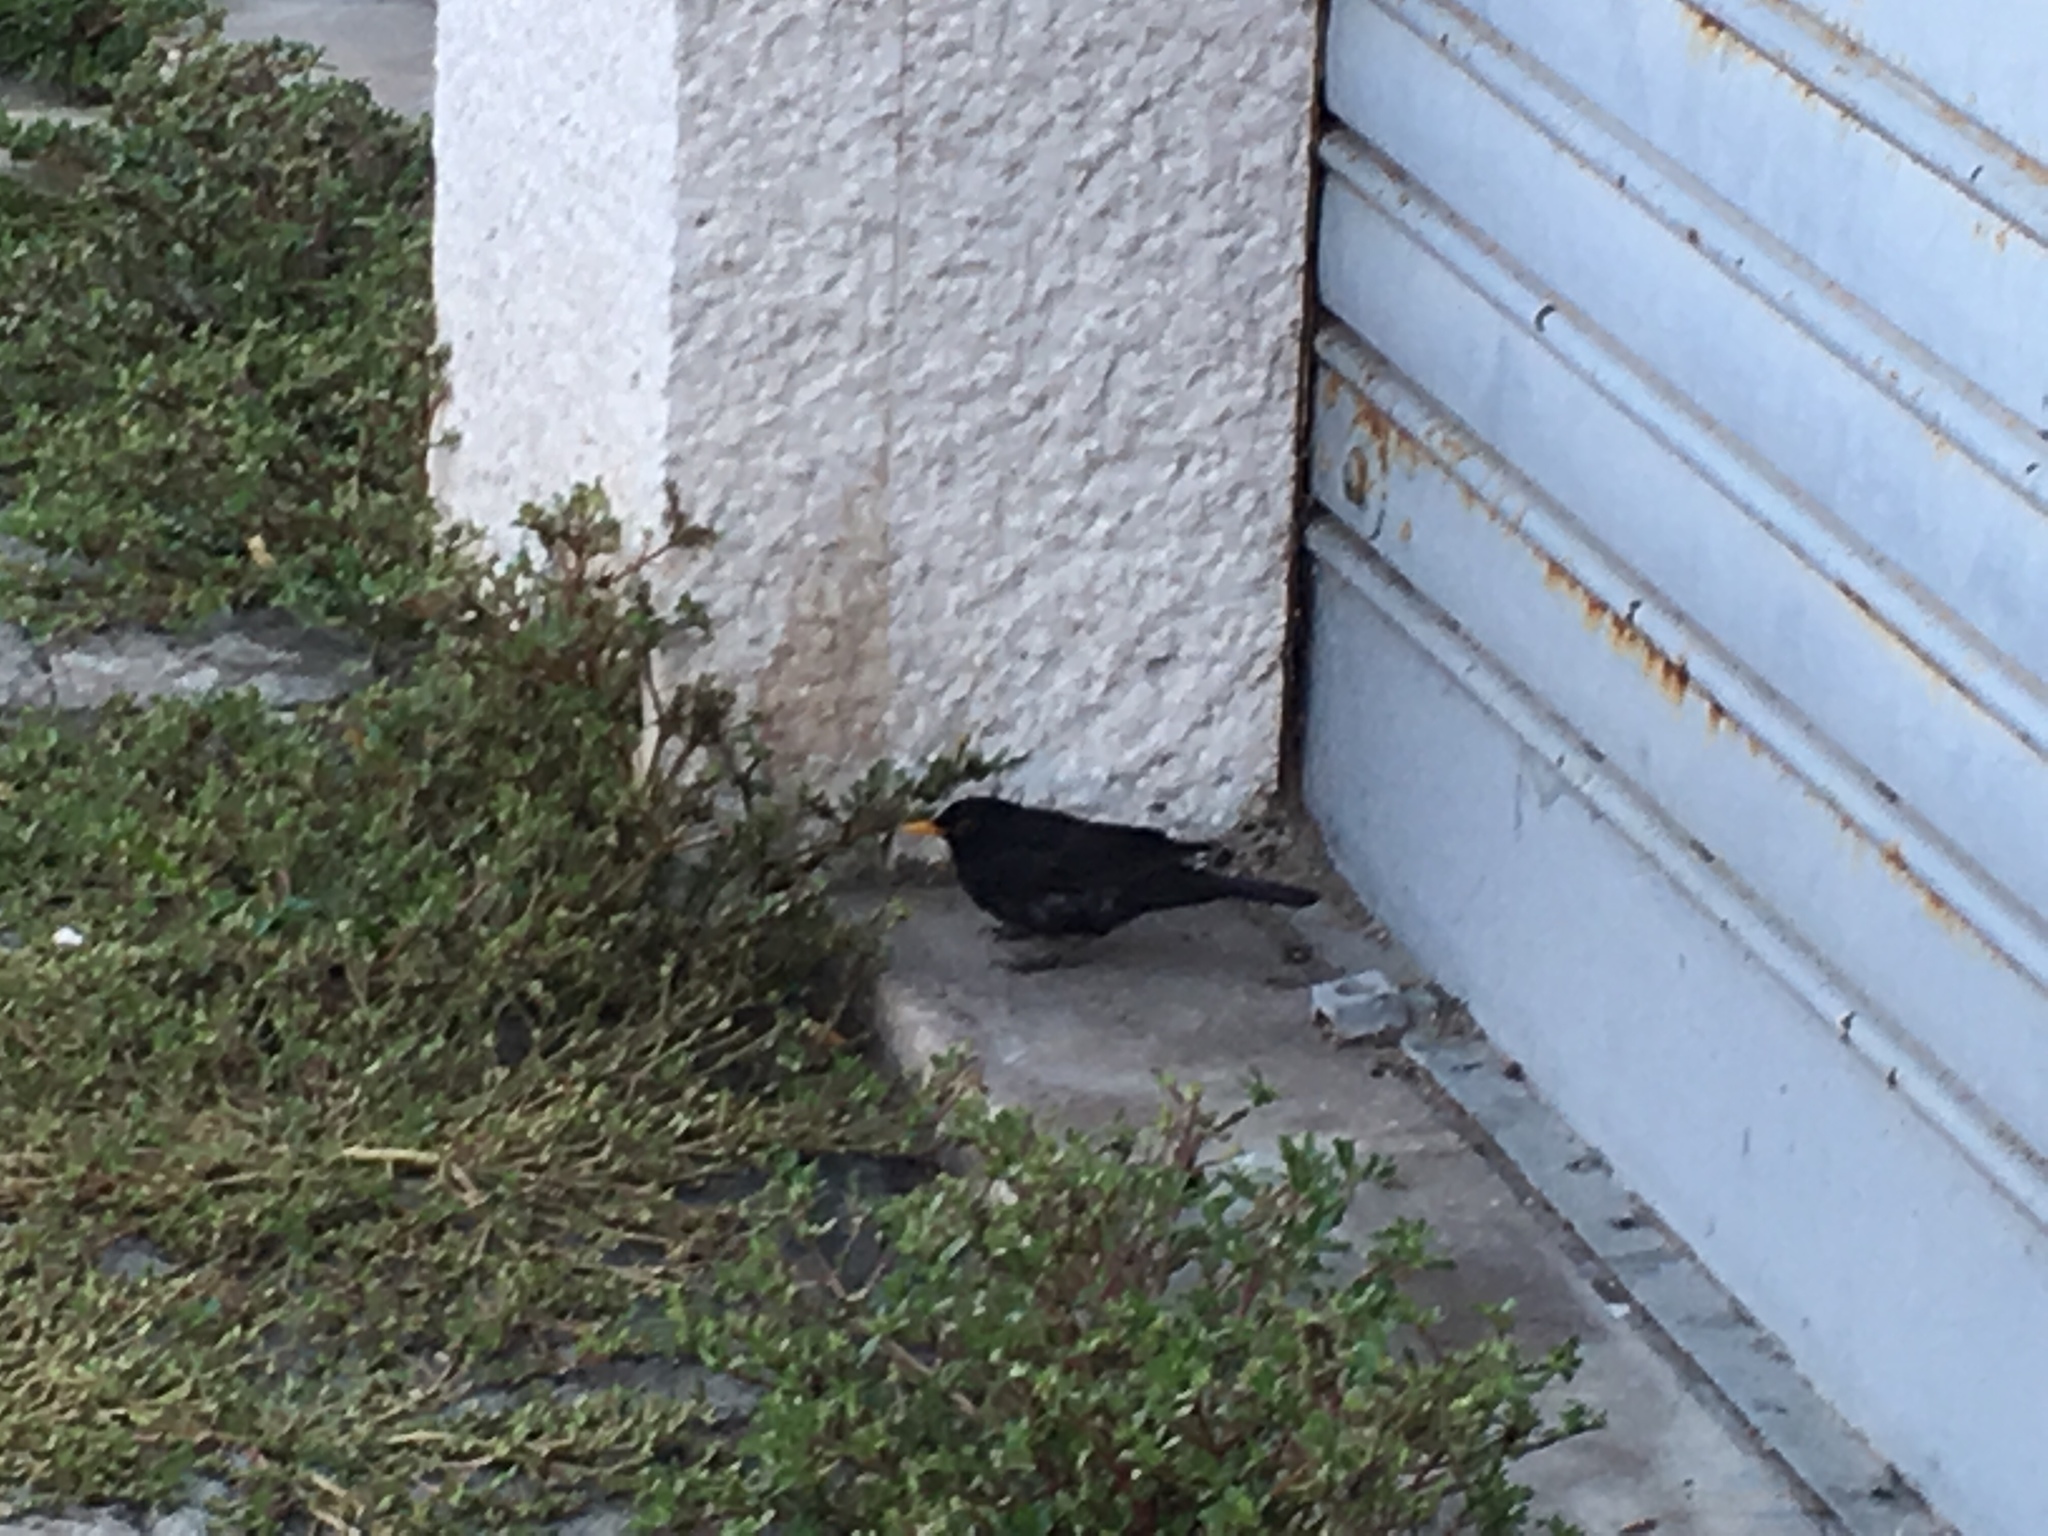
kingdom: Animalia
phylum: Chordata
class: Aves
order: Passeriformes
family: Turdidae
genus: Turdus
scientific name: Turdus merula
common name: Common blackbird
